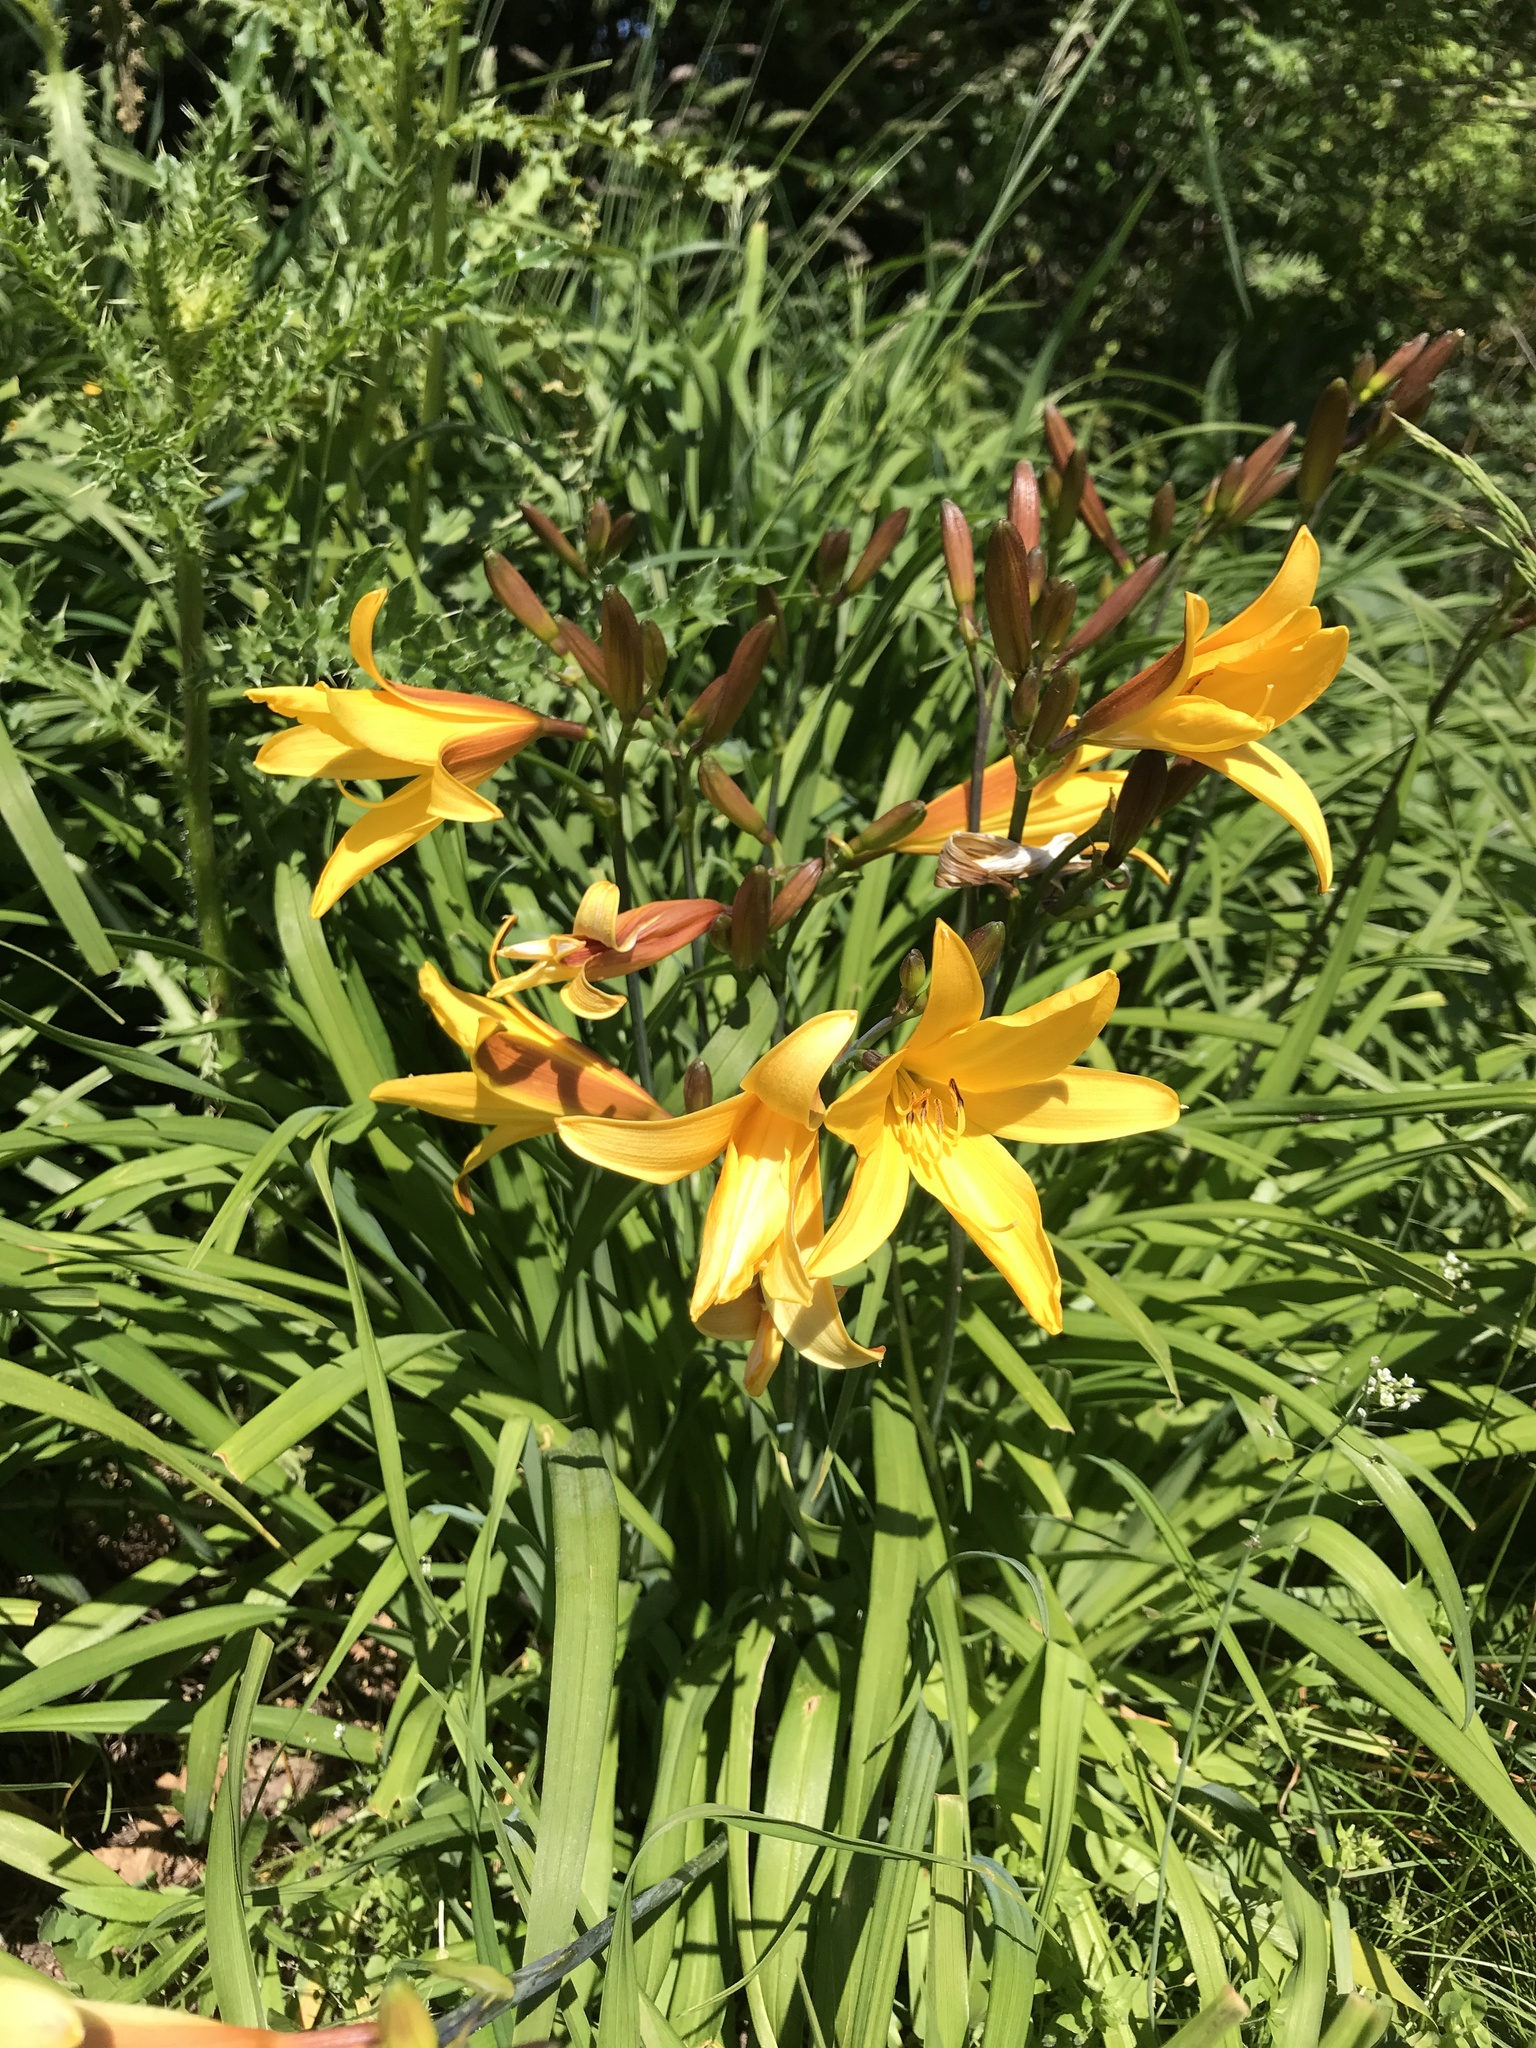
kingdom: Plantae
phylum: Tracheophyta
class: Liliopsida
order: Asparagales
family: Asphodelaceae
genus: Hemerocallis
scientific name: Hemerocallis dumortieri
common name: Dumortier's day-lily
